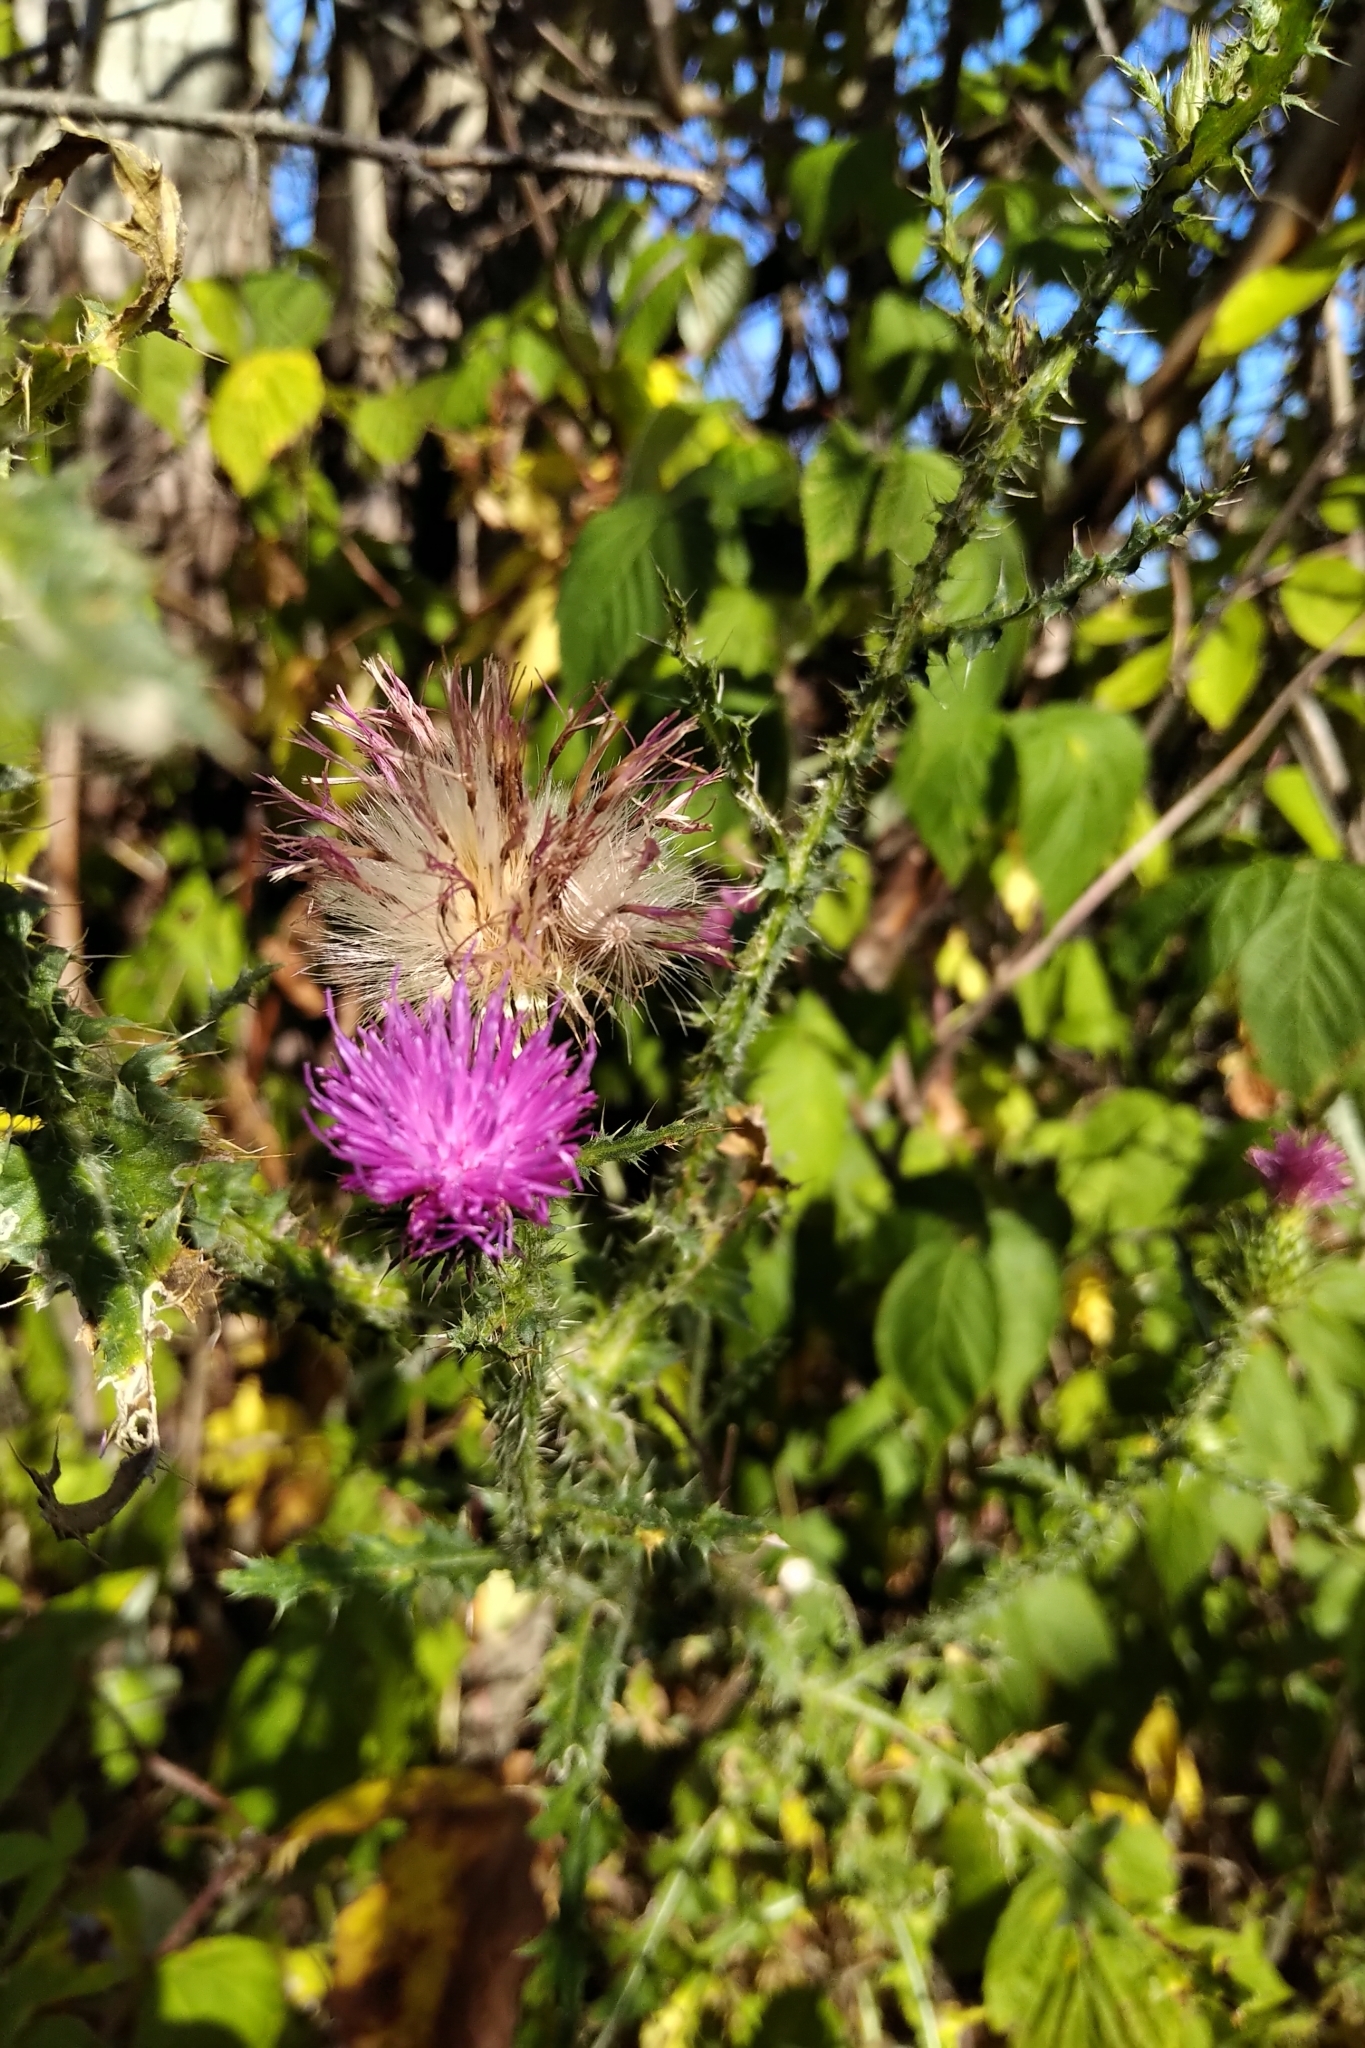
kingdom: Plantae
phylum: Tracheophyta
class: Magnoliopsida
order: Asterales
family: Asteraceae
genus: Carduus
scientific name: Carduus acanthoides
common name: Plumeless thistle
